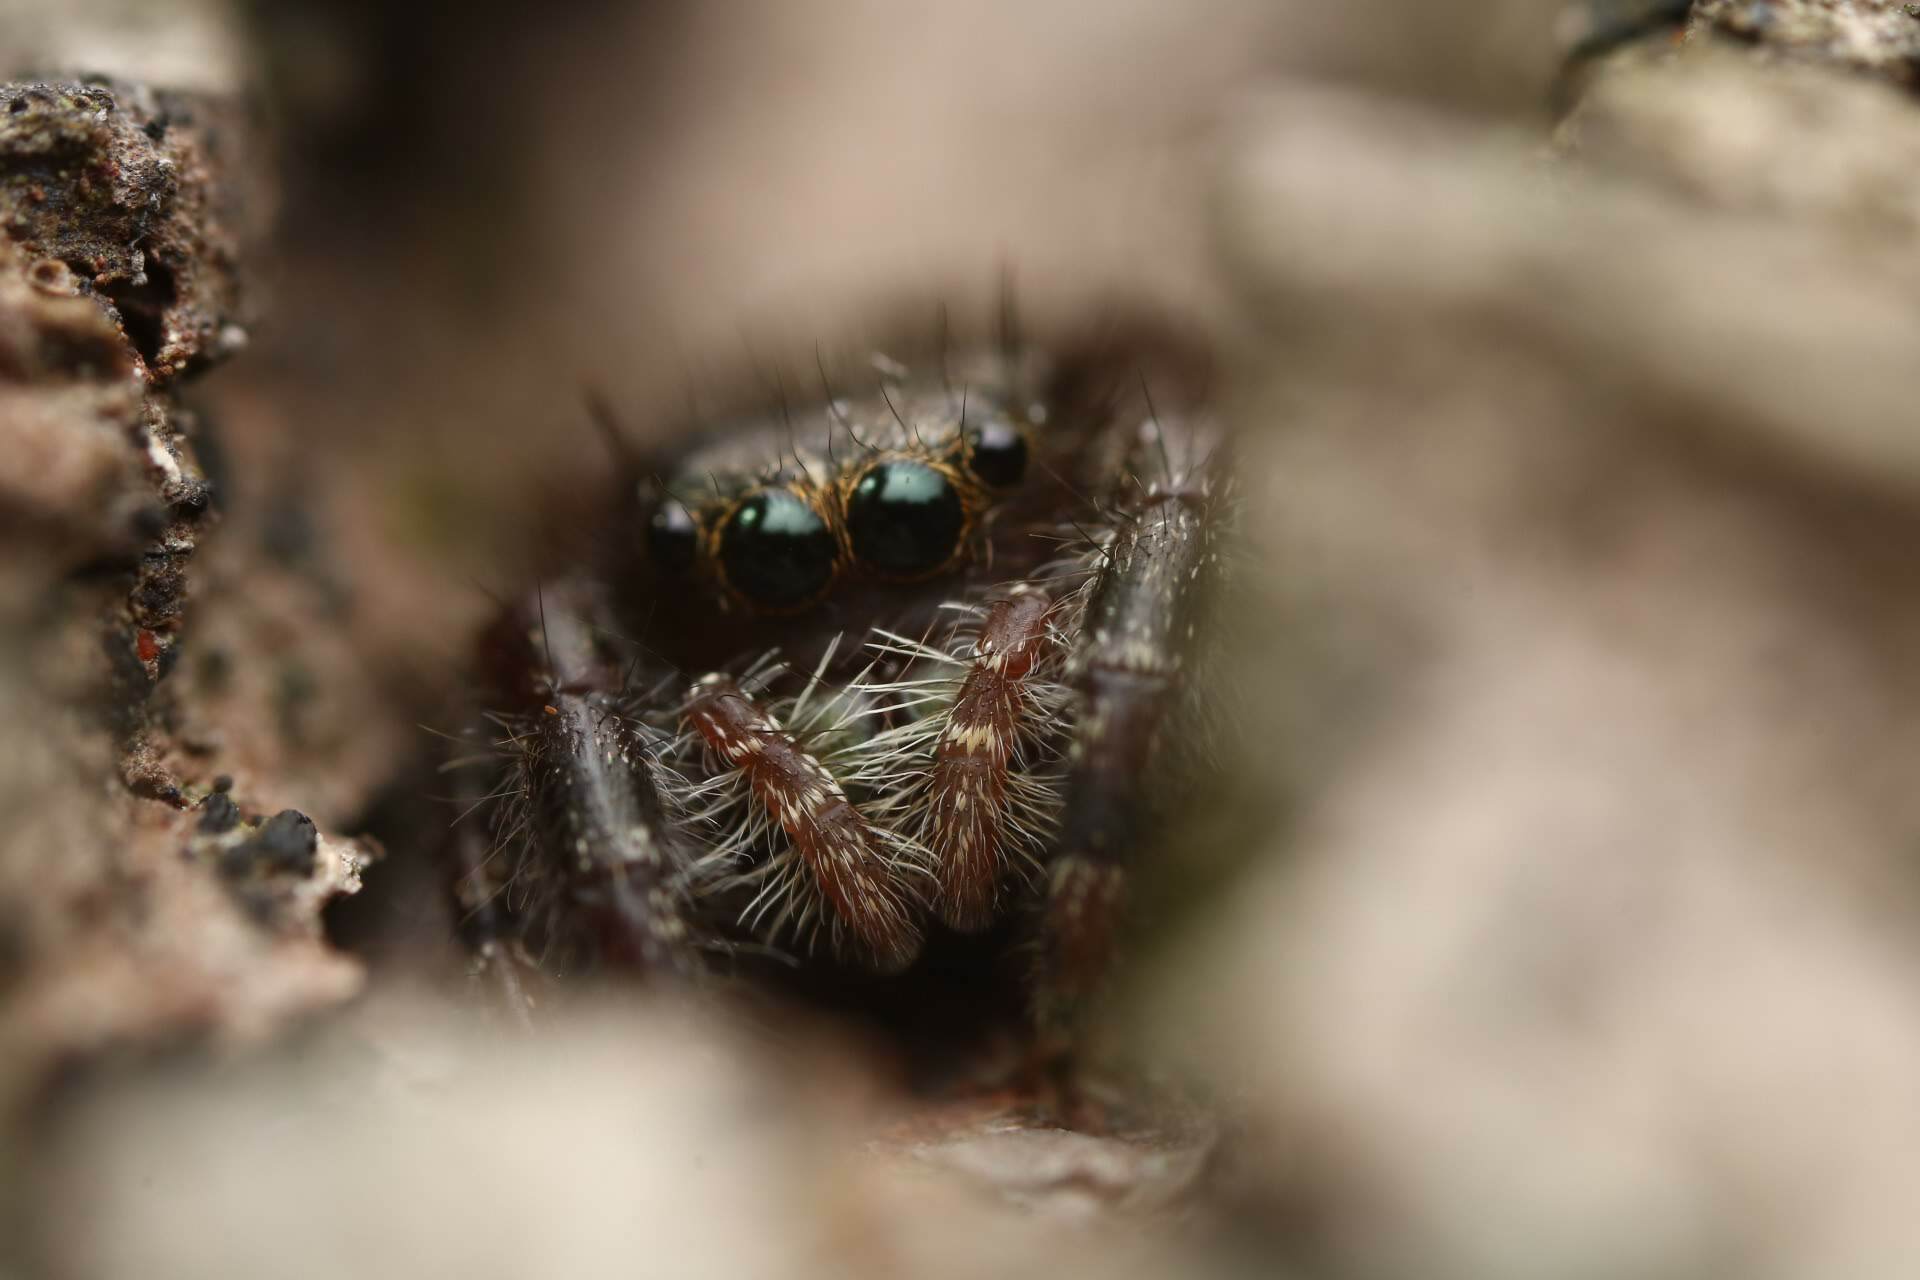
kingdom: Animalia
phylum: Arthropoda
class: Arachnida
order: Araneae
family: Salticidae
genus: Phidippus
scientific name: Phidippus audax
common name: Bold jumper
